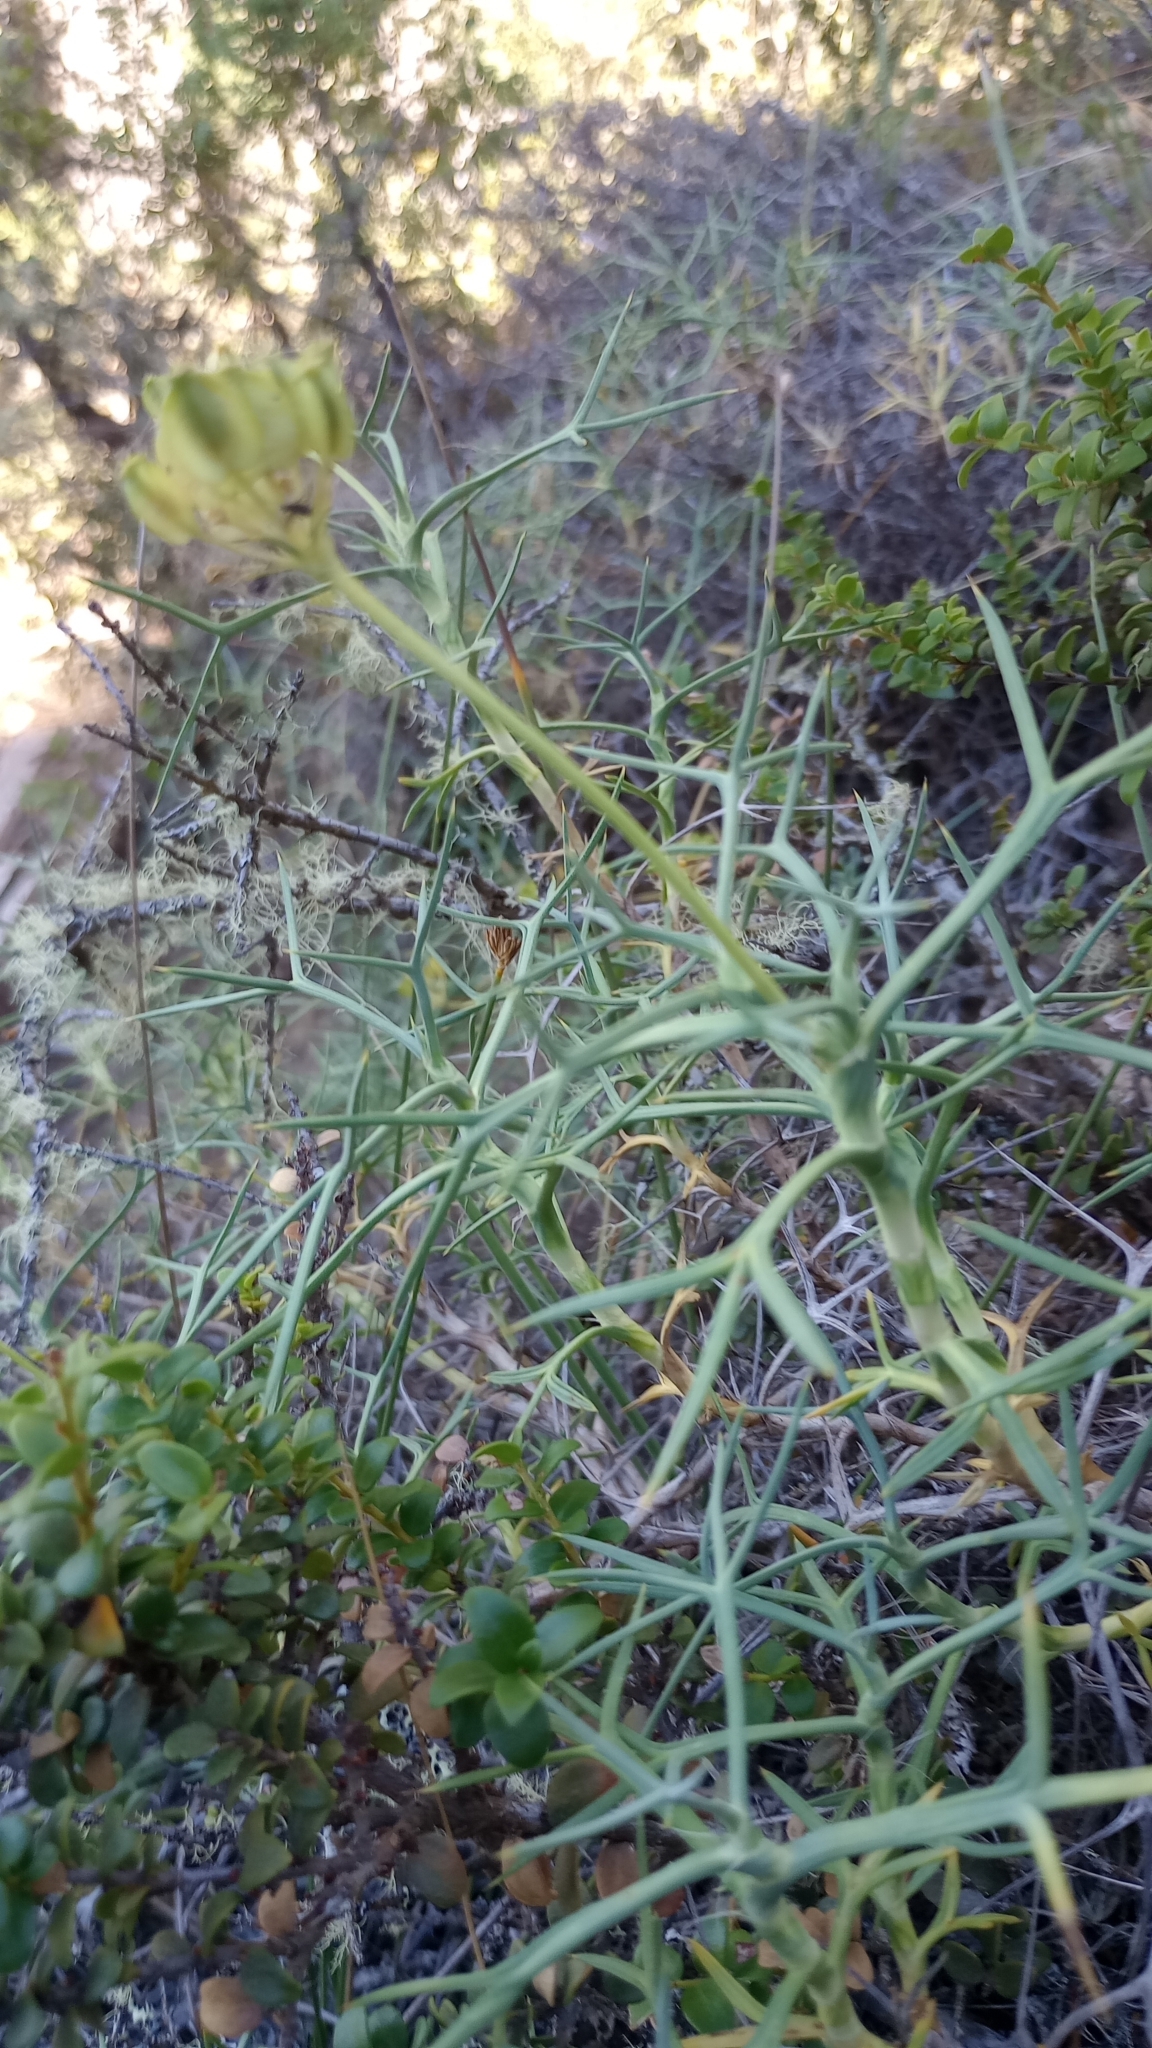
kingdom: Plantae
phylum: Tracheophyta
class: Magnoliopsida
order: Apiales
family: Apiaceae
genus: Azorella
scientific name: Azorella prolifera
